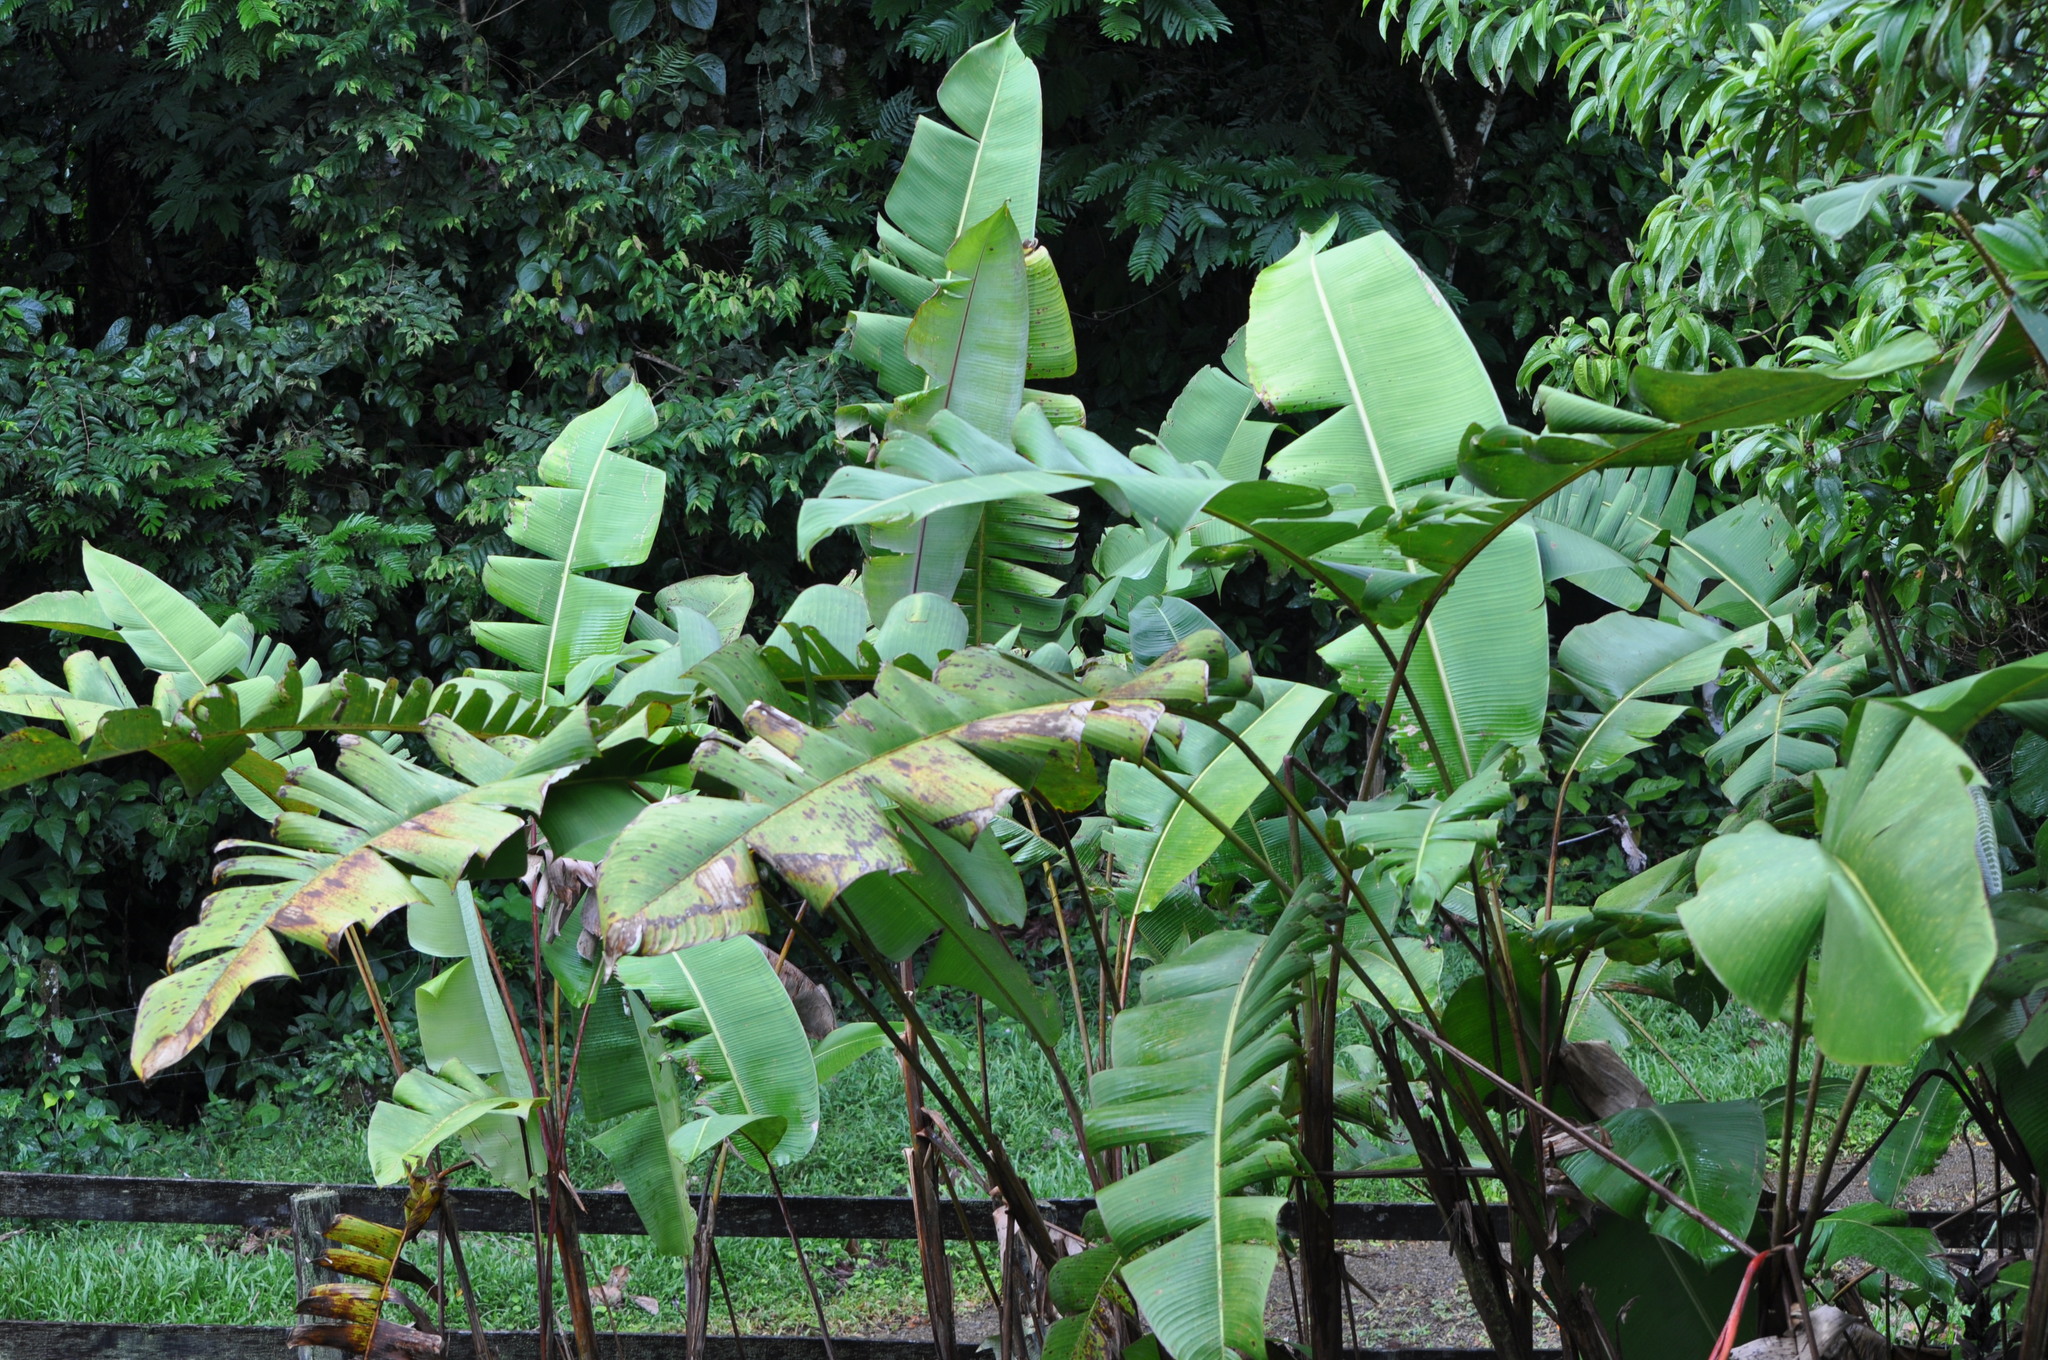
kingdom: Plantae
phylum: Tracheophyta
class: Liliopsida
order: Zingiberales
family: Heliconiaceae
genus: Heliconia
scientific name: Heliconia pogonantha
